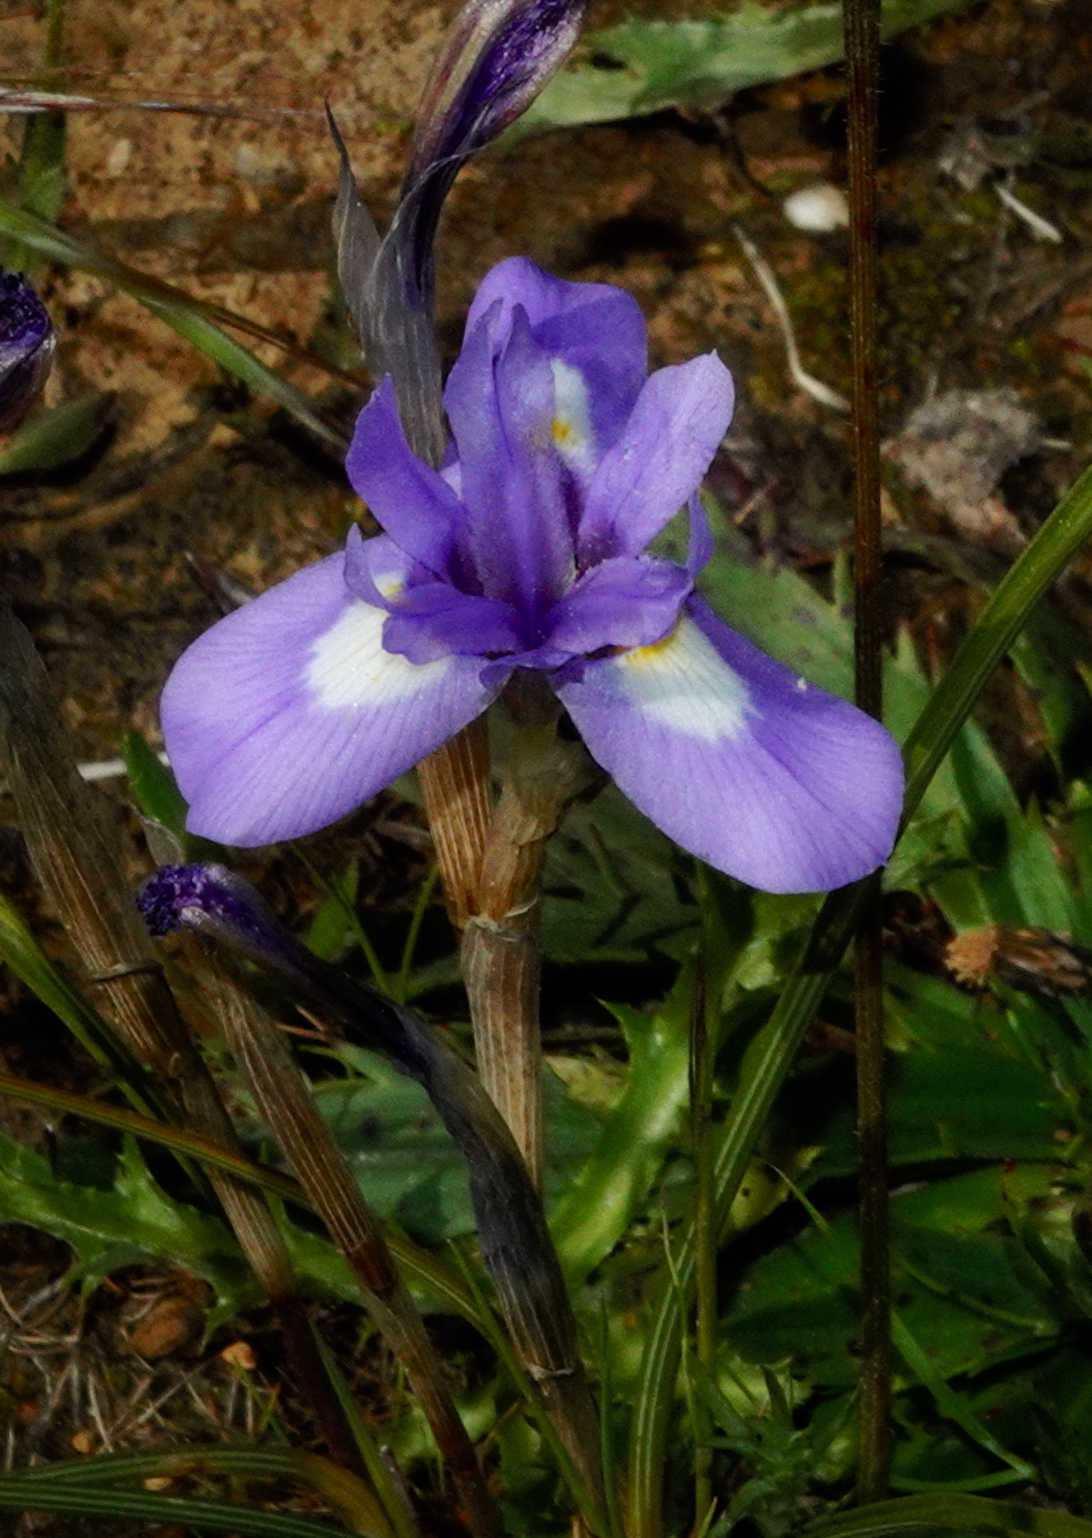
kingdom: Plantae
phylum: Tracheophyta
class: Liliopsida
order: Asparagales
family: Iridaceae
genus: Moraea
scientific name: Moraea sisyrinchium
